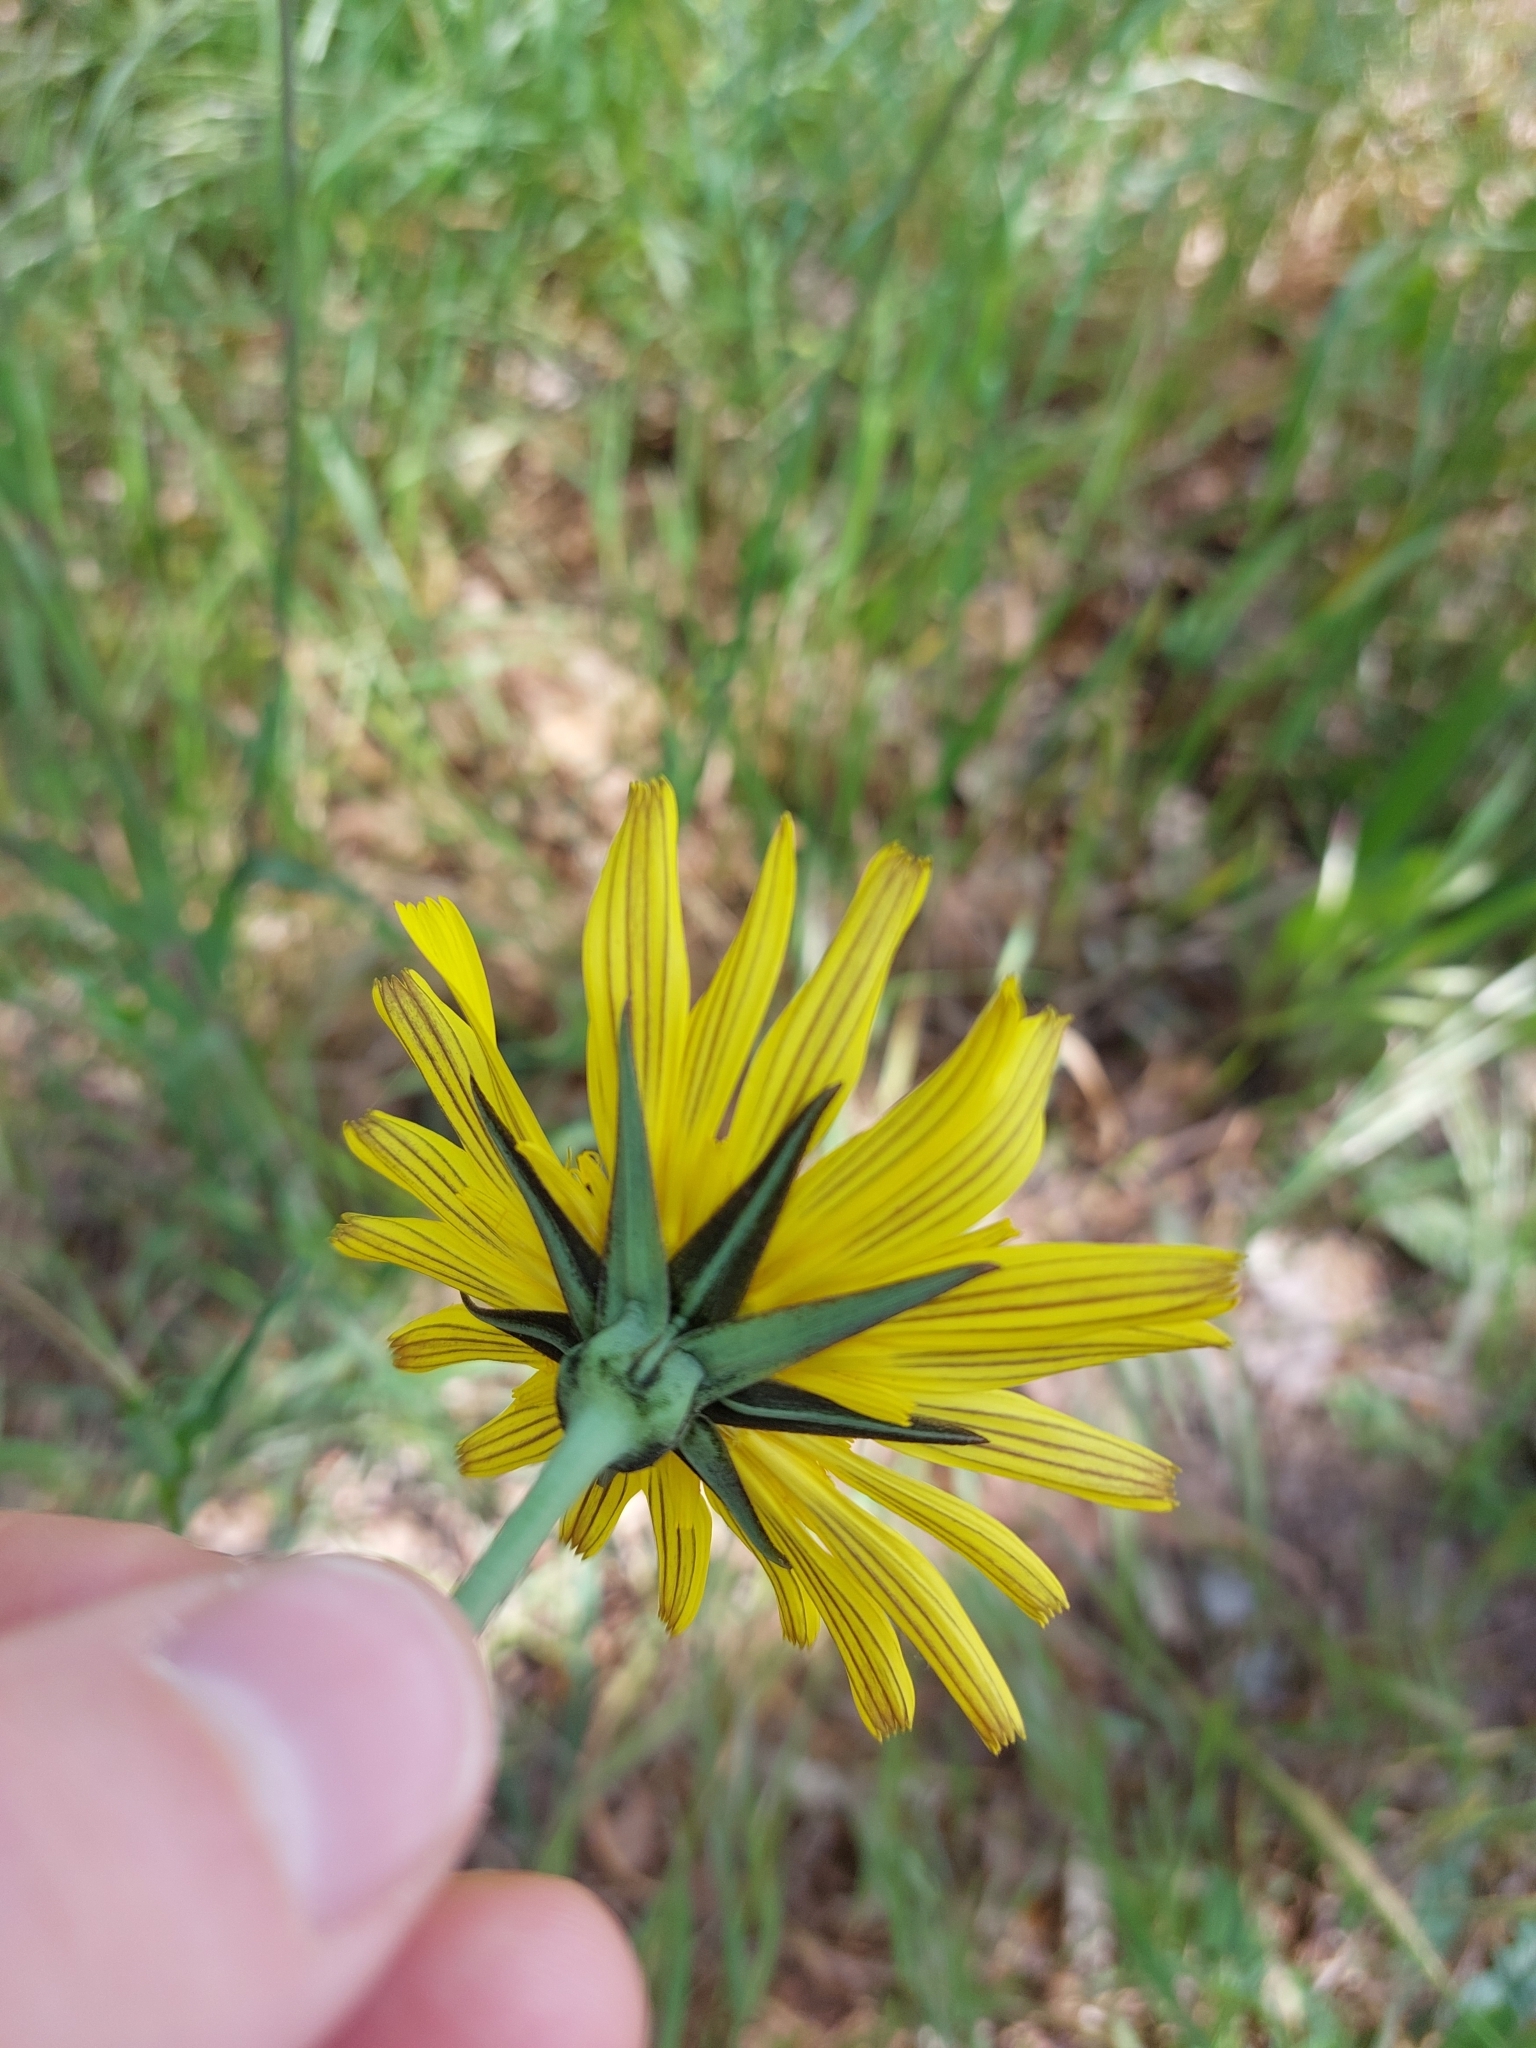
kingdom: Plantae
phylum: Tracheophyta
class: Magnoliopsida
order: Asterales
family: Asteraceae
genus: Tragopogon
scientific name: Tragopogon pratensis
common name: Goat's-beard
